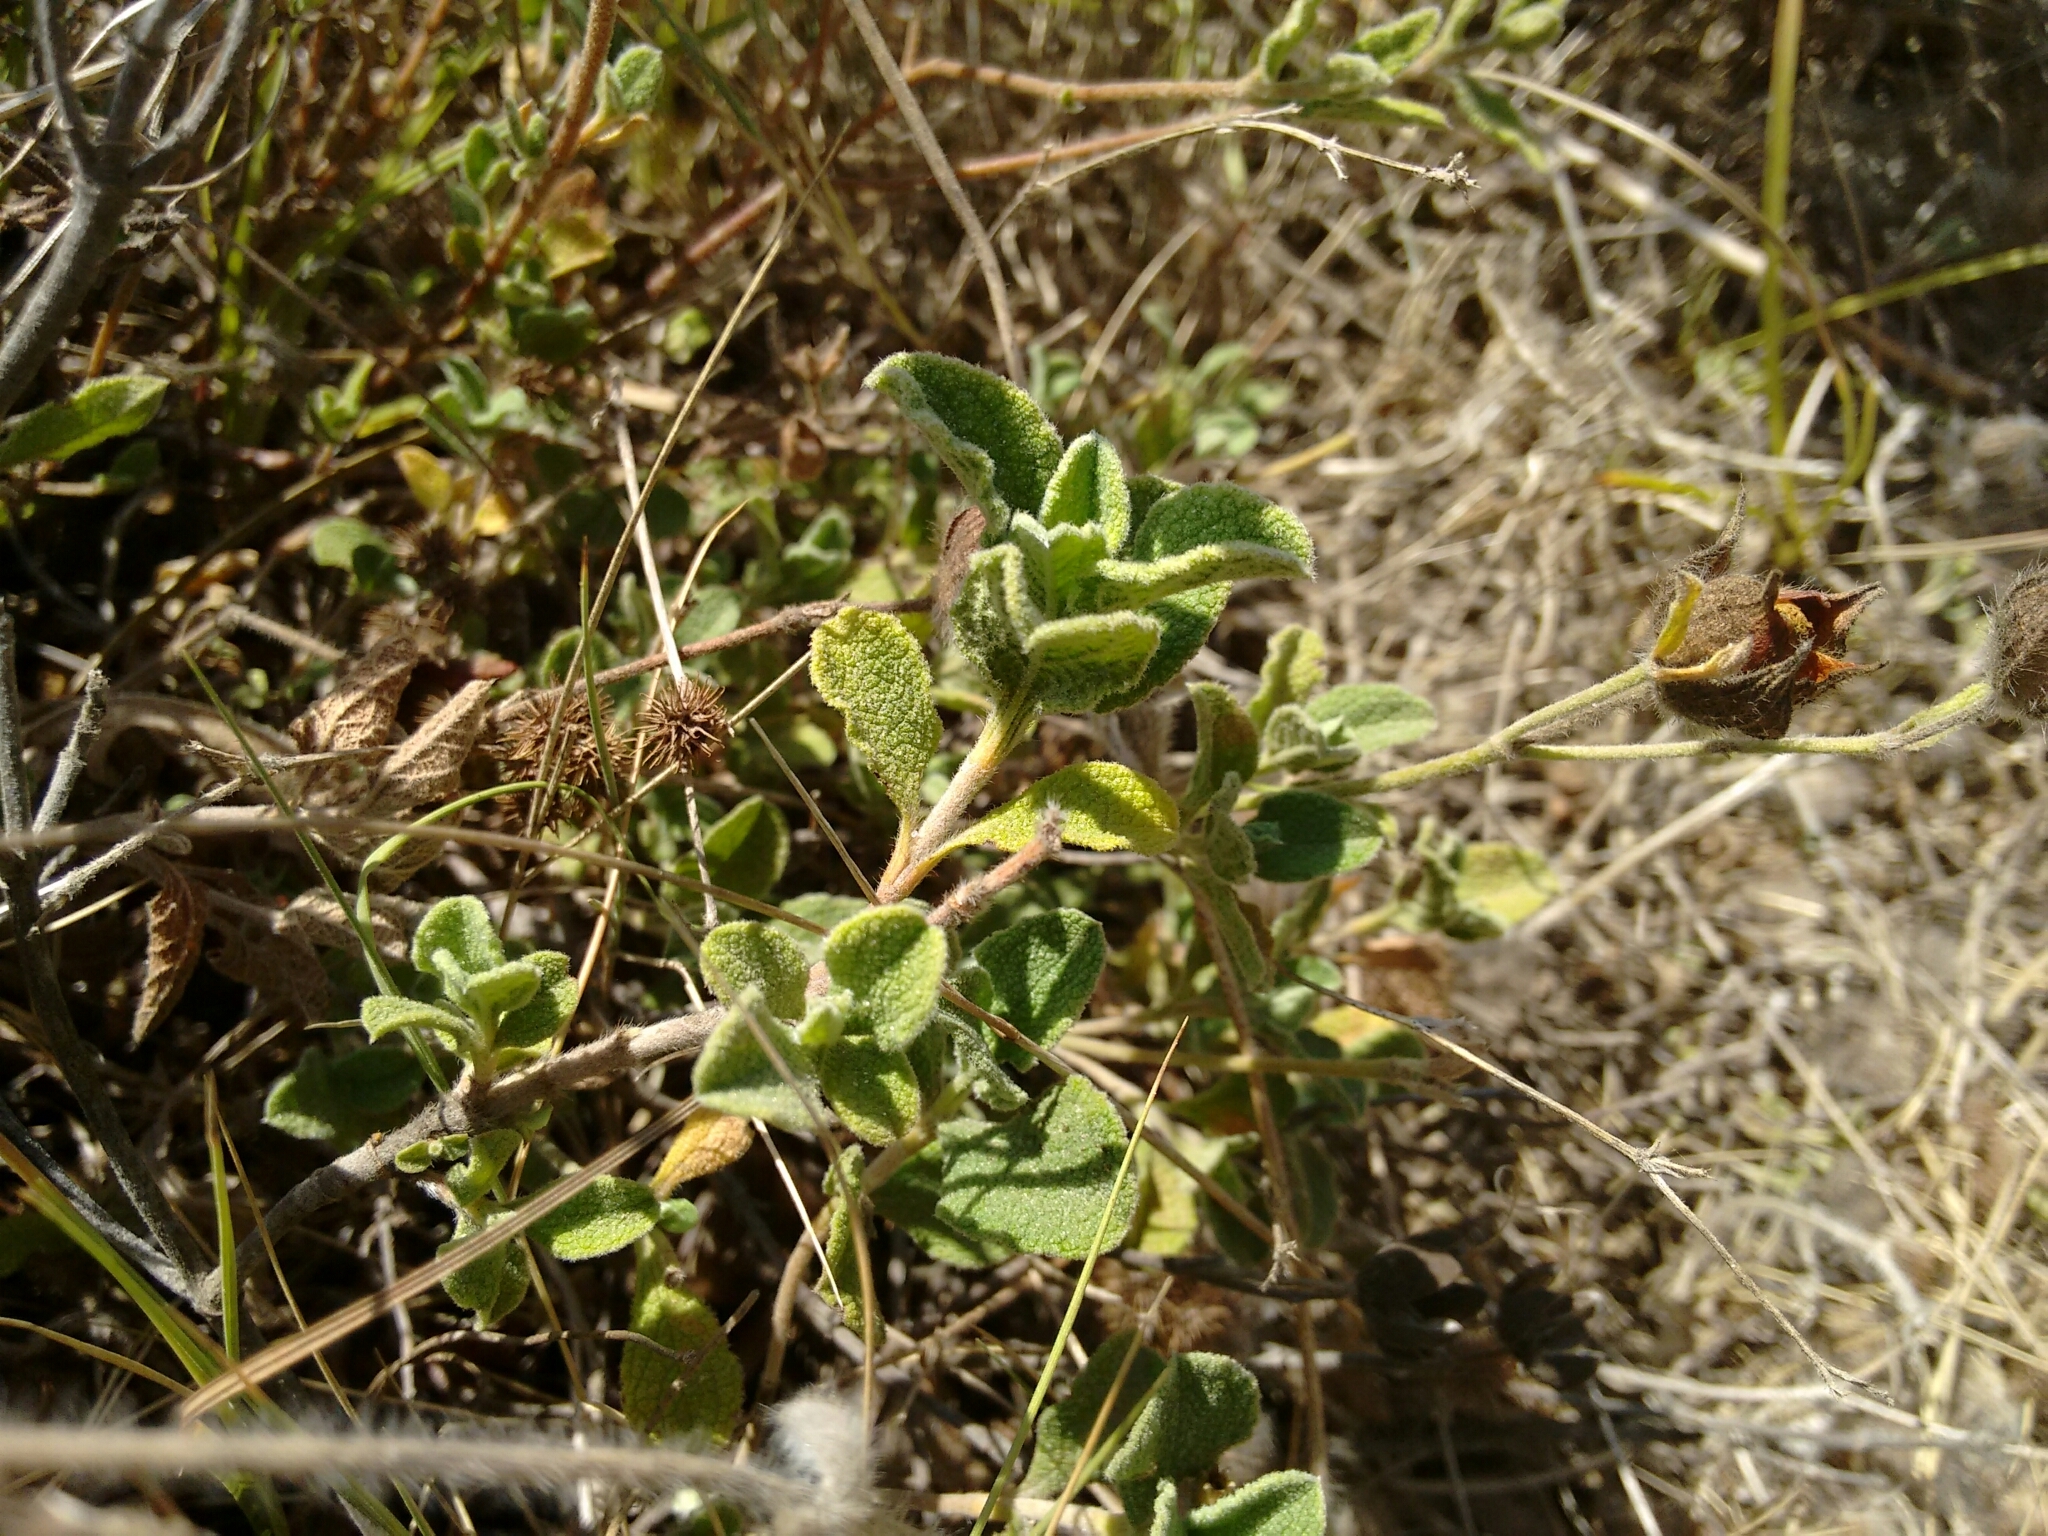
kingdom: Plantae
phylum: Tracheophyta
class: Magnoliopsida
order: Malvales
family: Cistaceae
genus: Cistus
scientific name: Cistus creticus
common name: Cretan rockrose
